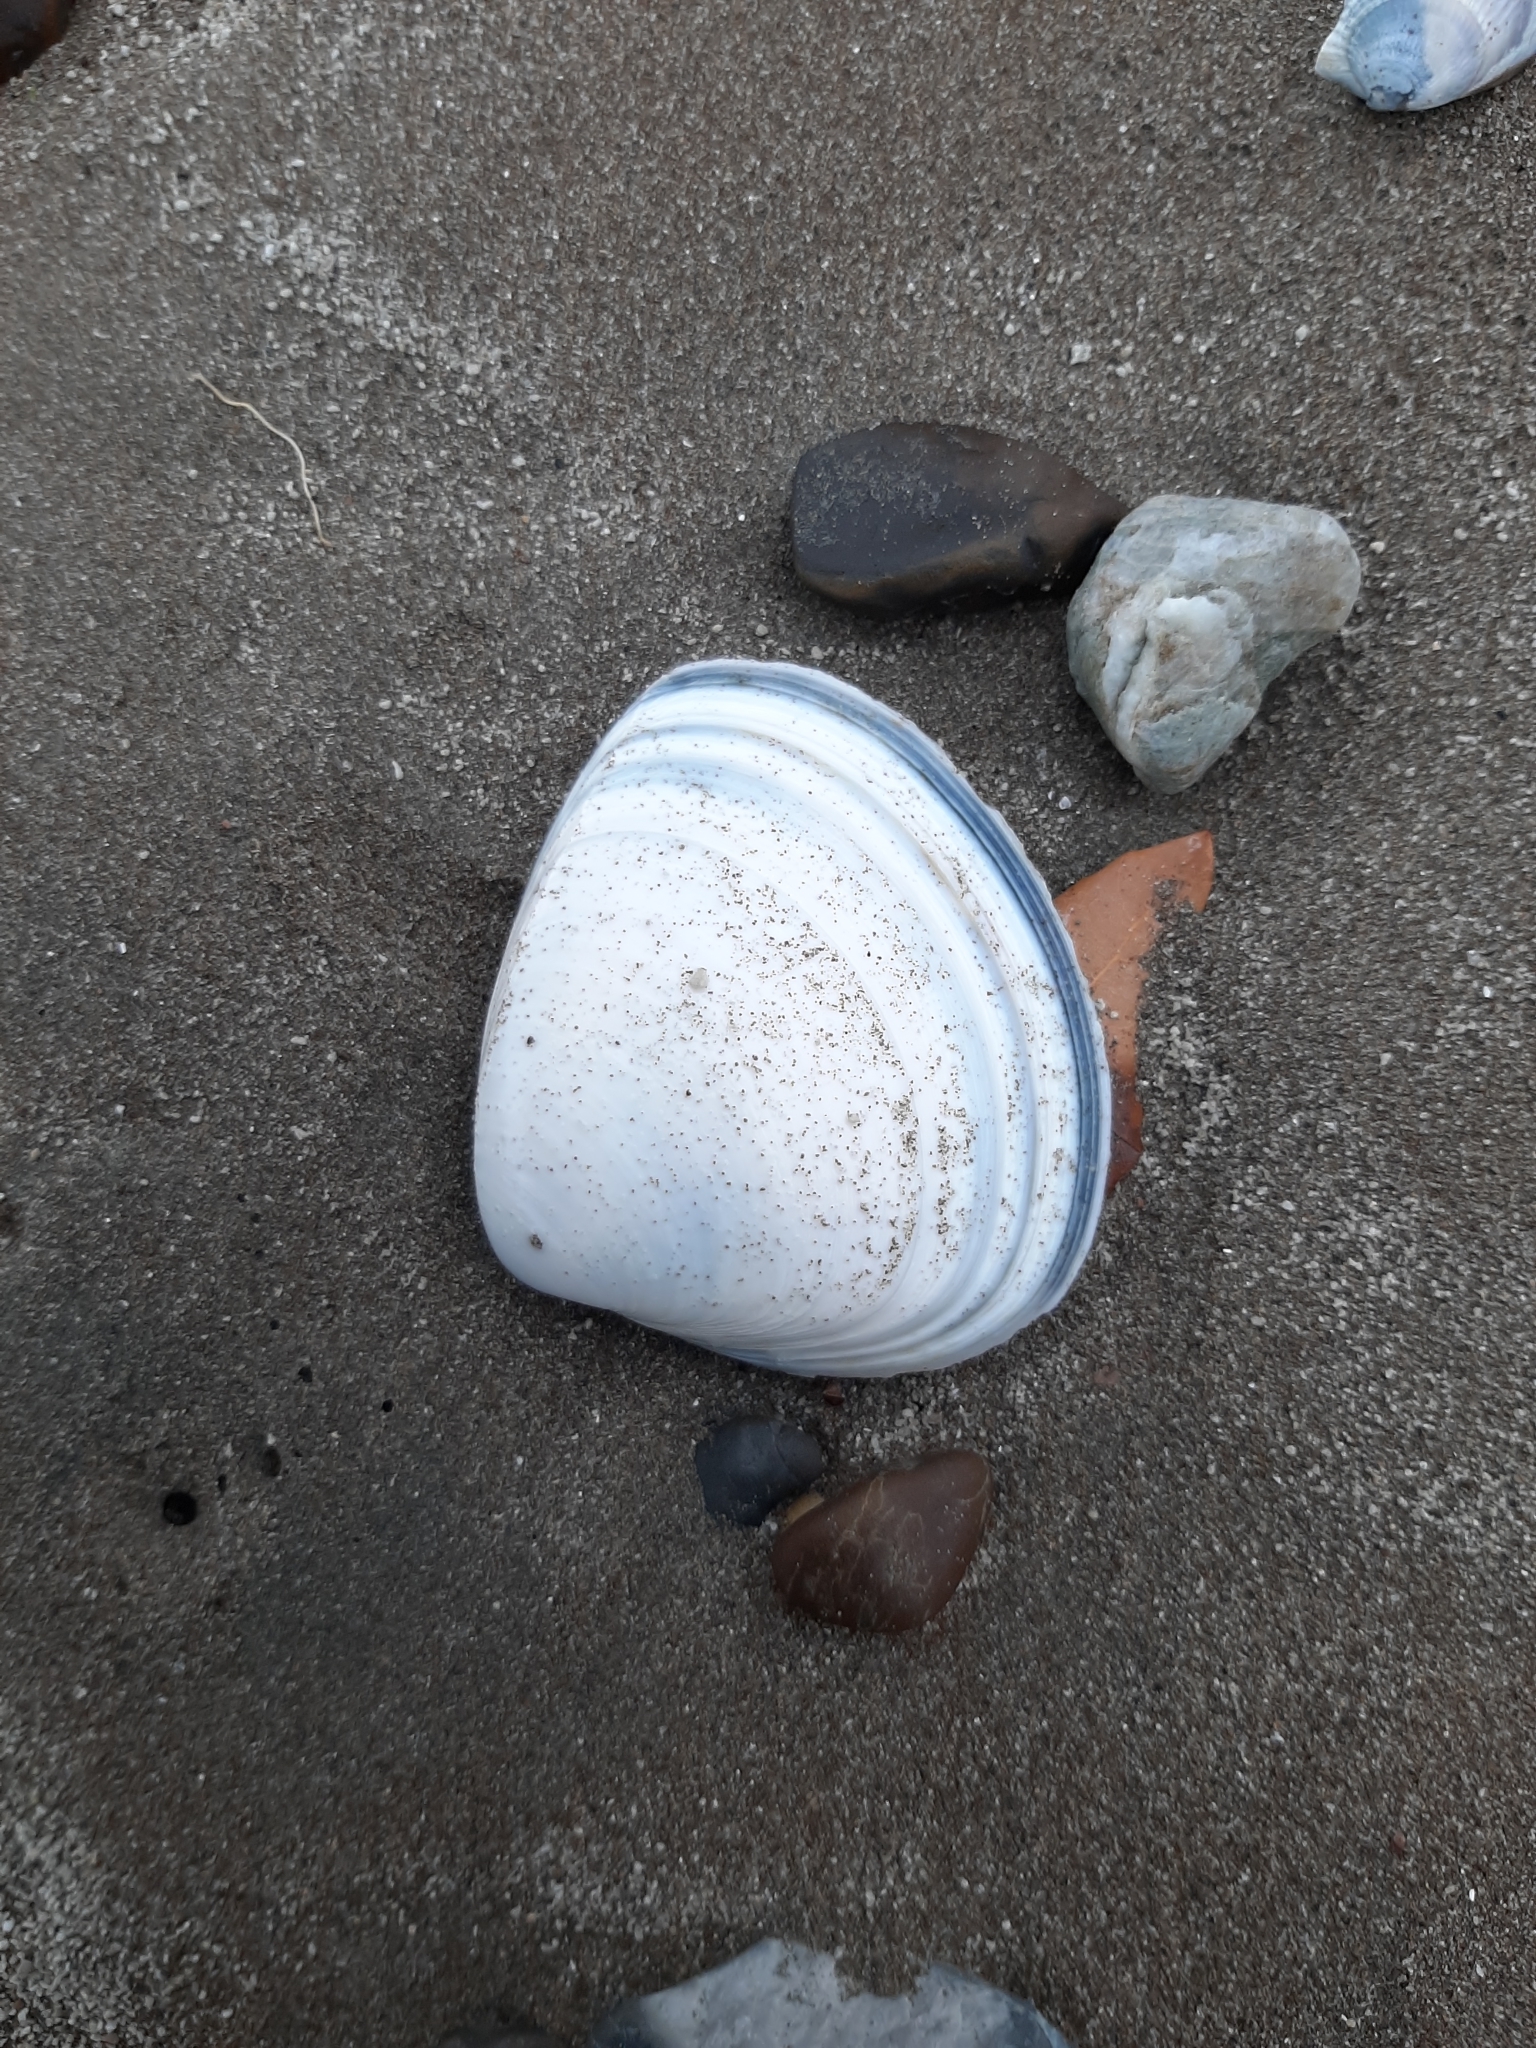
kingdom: Animalia
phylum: Mollusca
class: Bivalvia
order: Venerida
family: Mactridae
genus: Spisula
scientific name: Spisula discors
